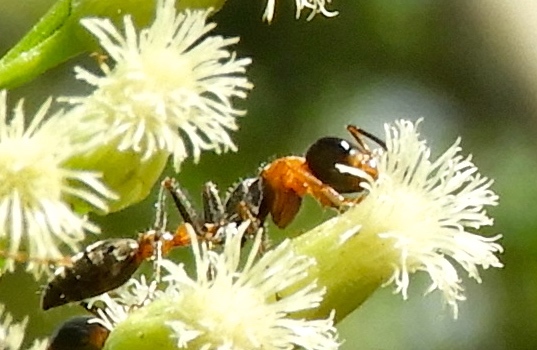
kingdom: Animalia
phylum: Arthropoda
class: Insecta
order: Hymenoptera
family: Formicidae
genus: Pseudomyrmex
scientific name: Pseudomyrmex gracilis
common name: Graceful twig ant
